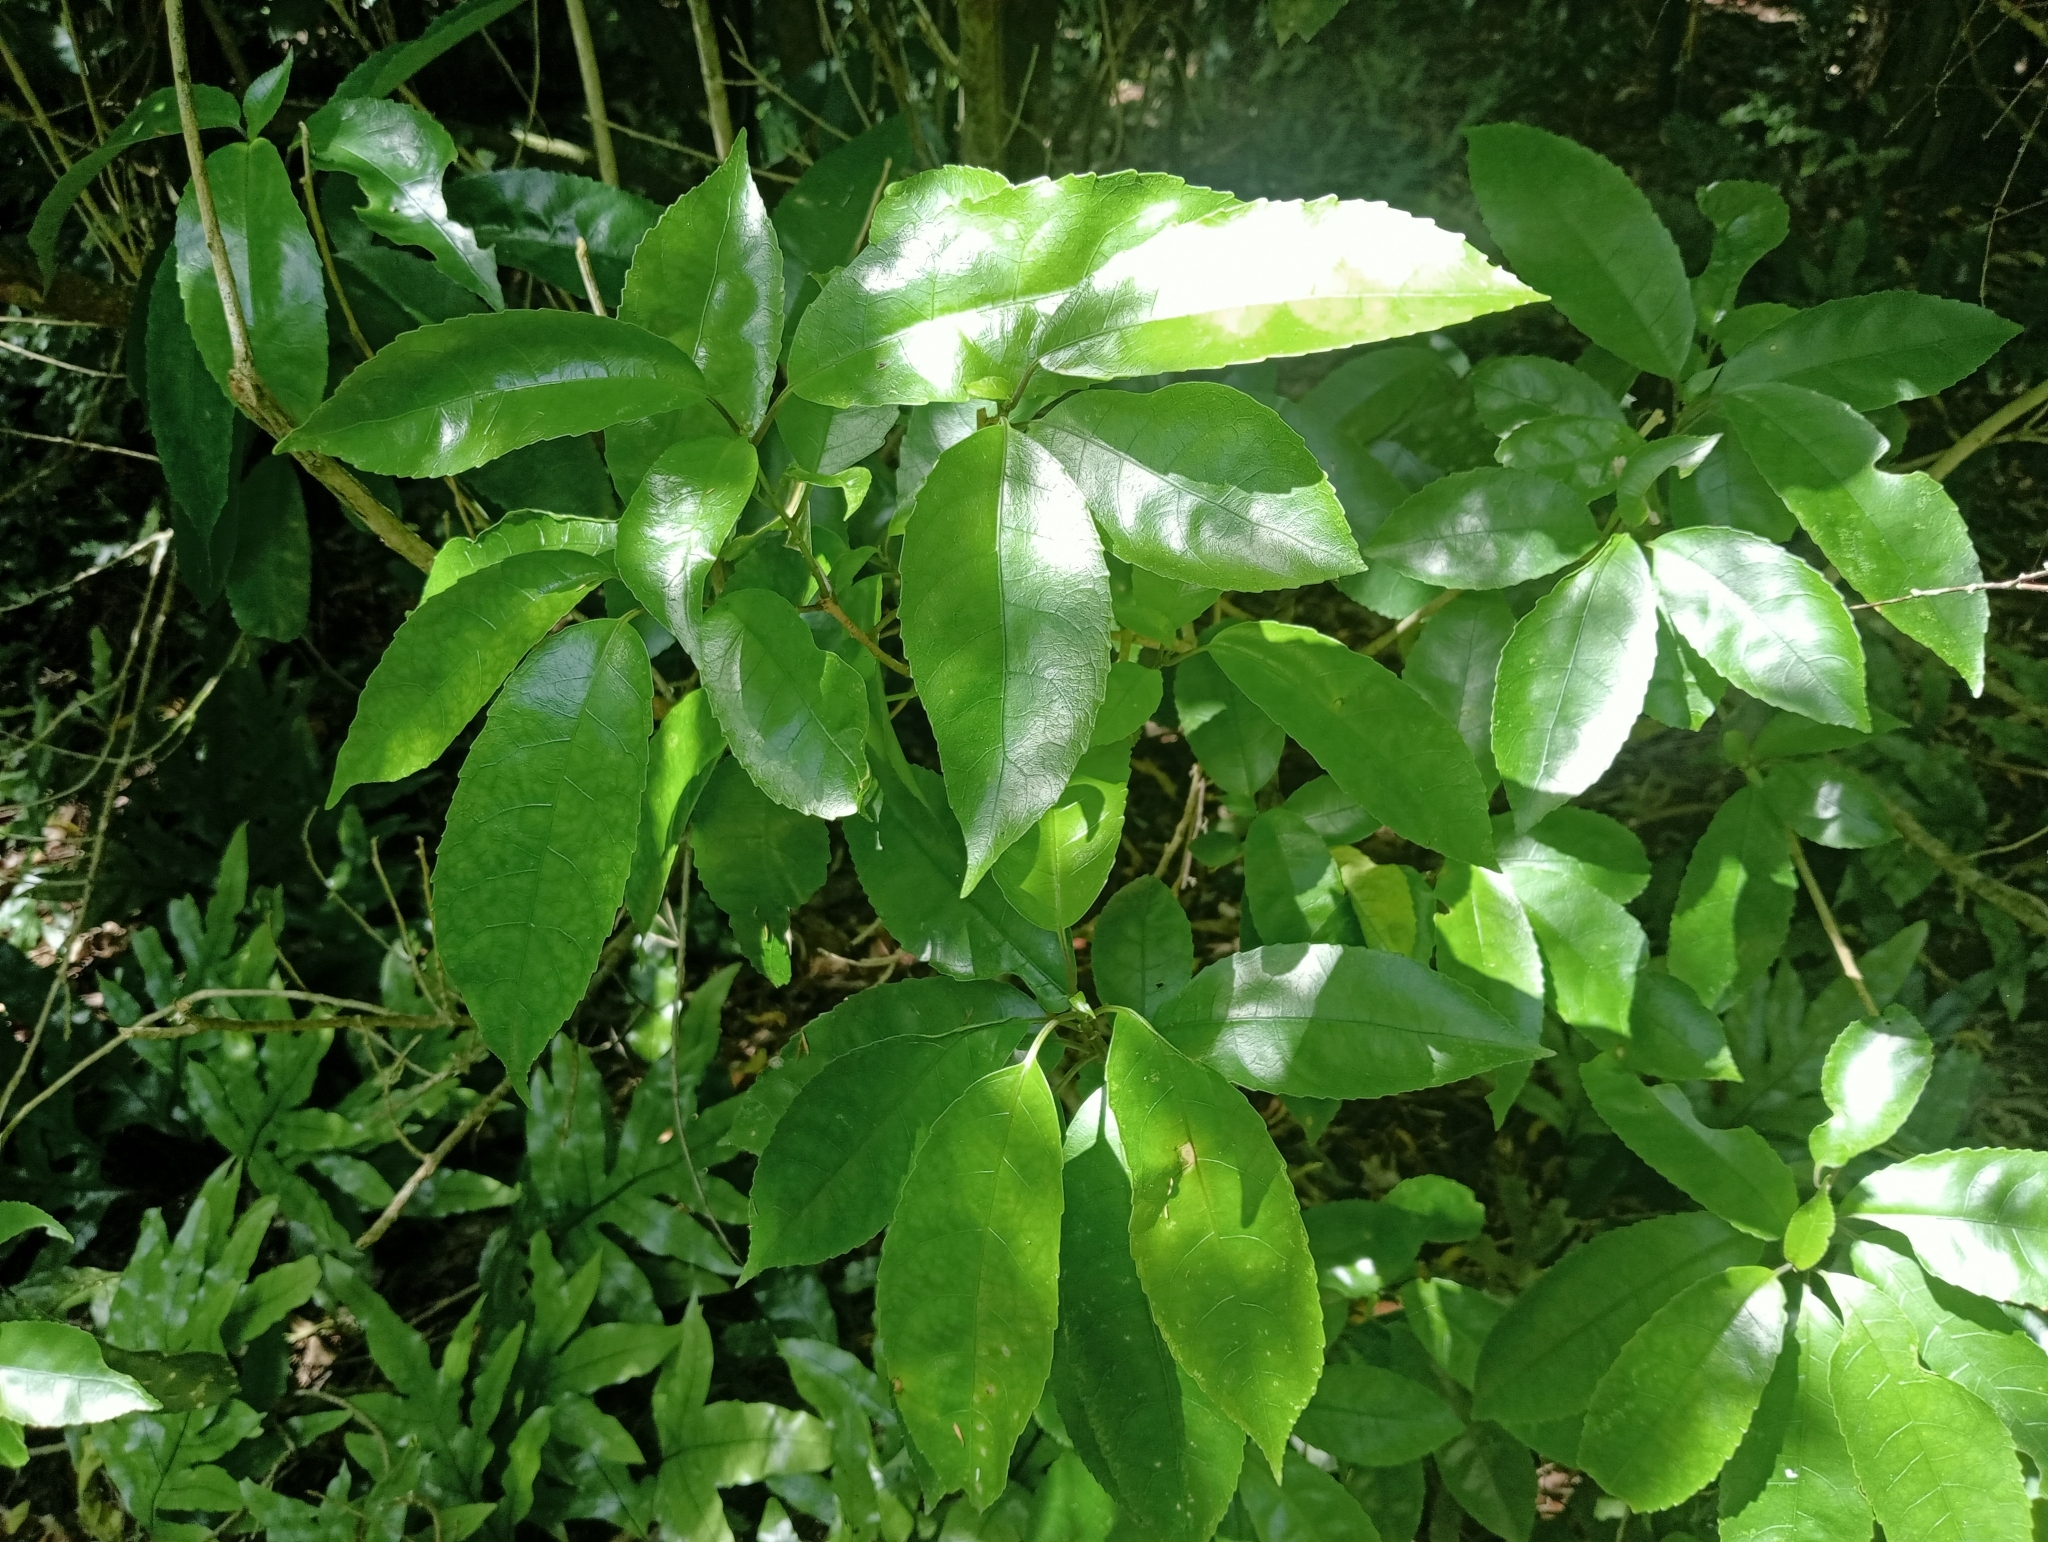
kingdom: Plantae
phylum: Tracheophyta
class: Magnoliopsida
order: Malpighiales
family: Violaceae
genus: Melicytus
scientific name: Melicytus ramiflorus
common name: Mahoe
